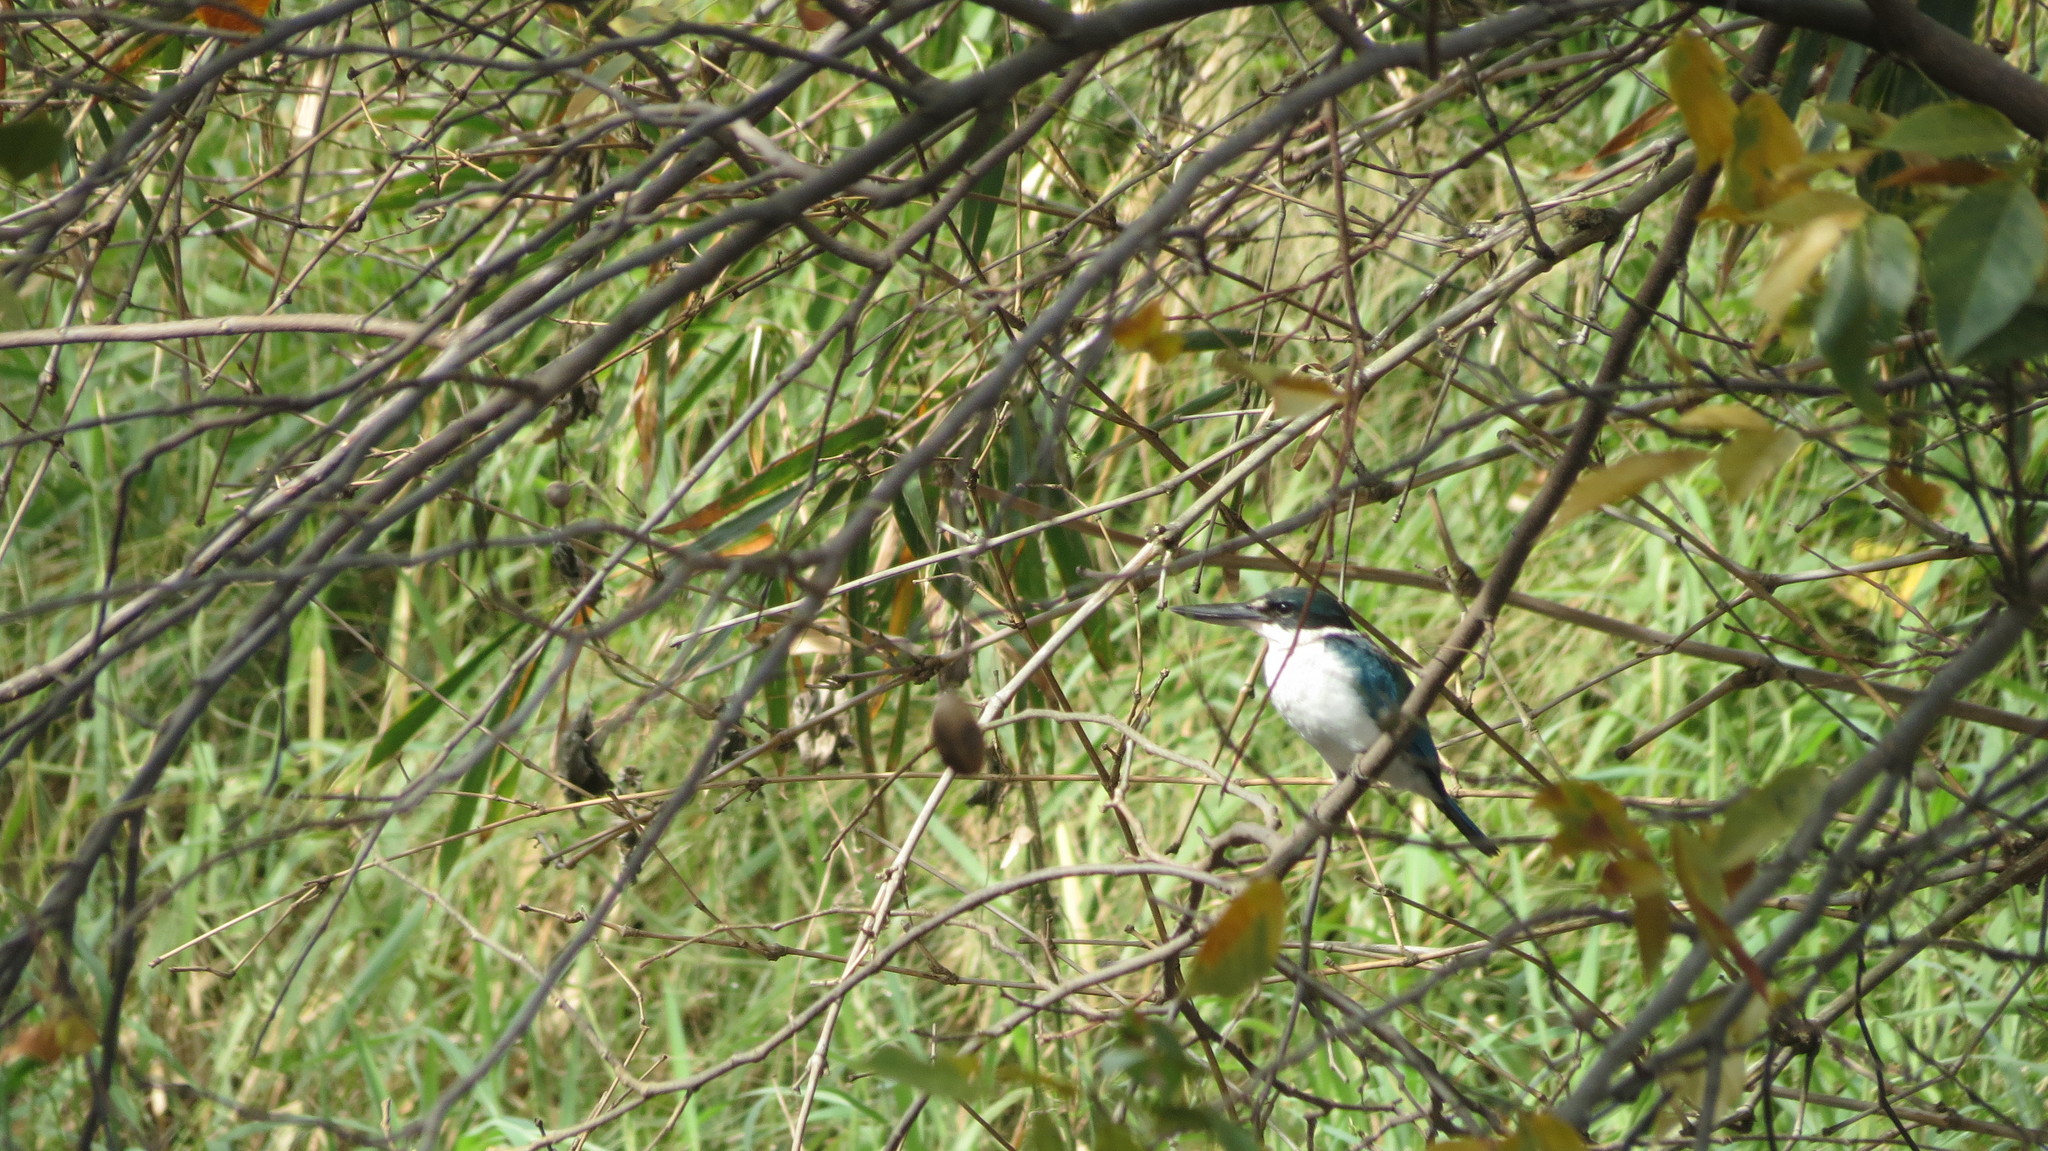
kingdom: Animalia
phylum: Chordata
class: Aves
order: Coraciiformes
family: Alcedinidae
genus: Todiramphus
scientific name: Todiramphus chloris
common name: Collared kingfisher
